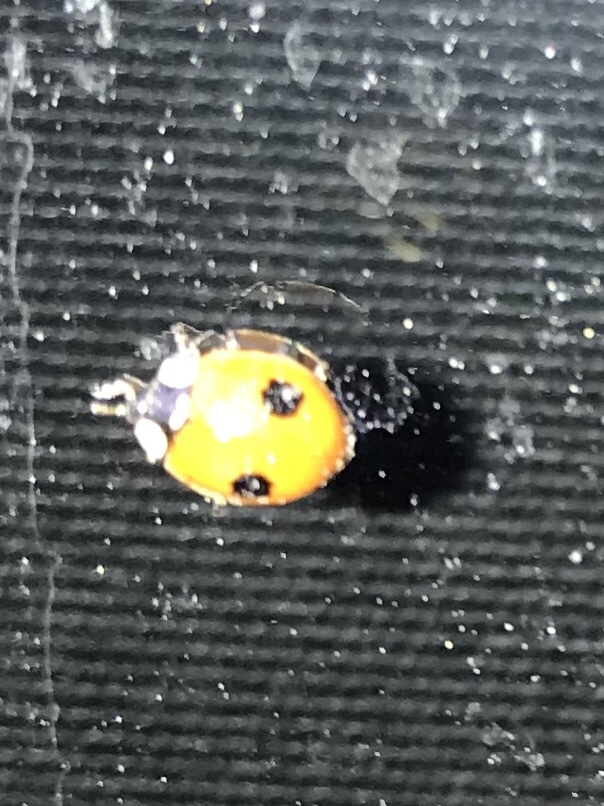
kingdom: Animalia
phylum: Arthropoda
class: Insecta
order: Coleoptera
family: Coccinellidae
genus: Adalia
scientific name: Adalia bipunctata
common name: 2-spot ladybird
